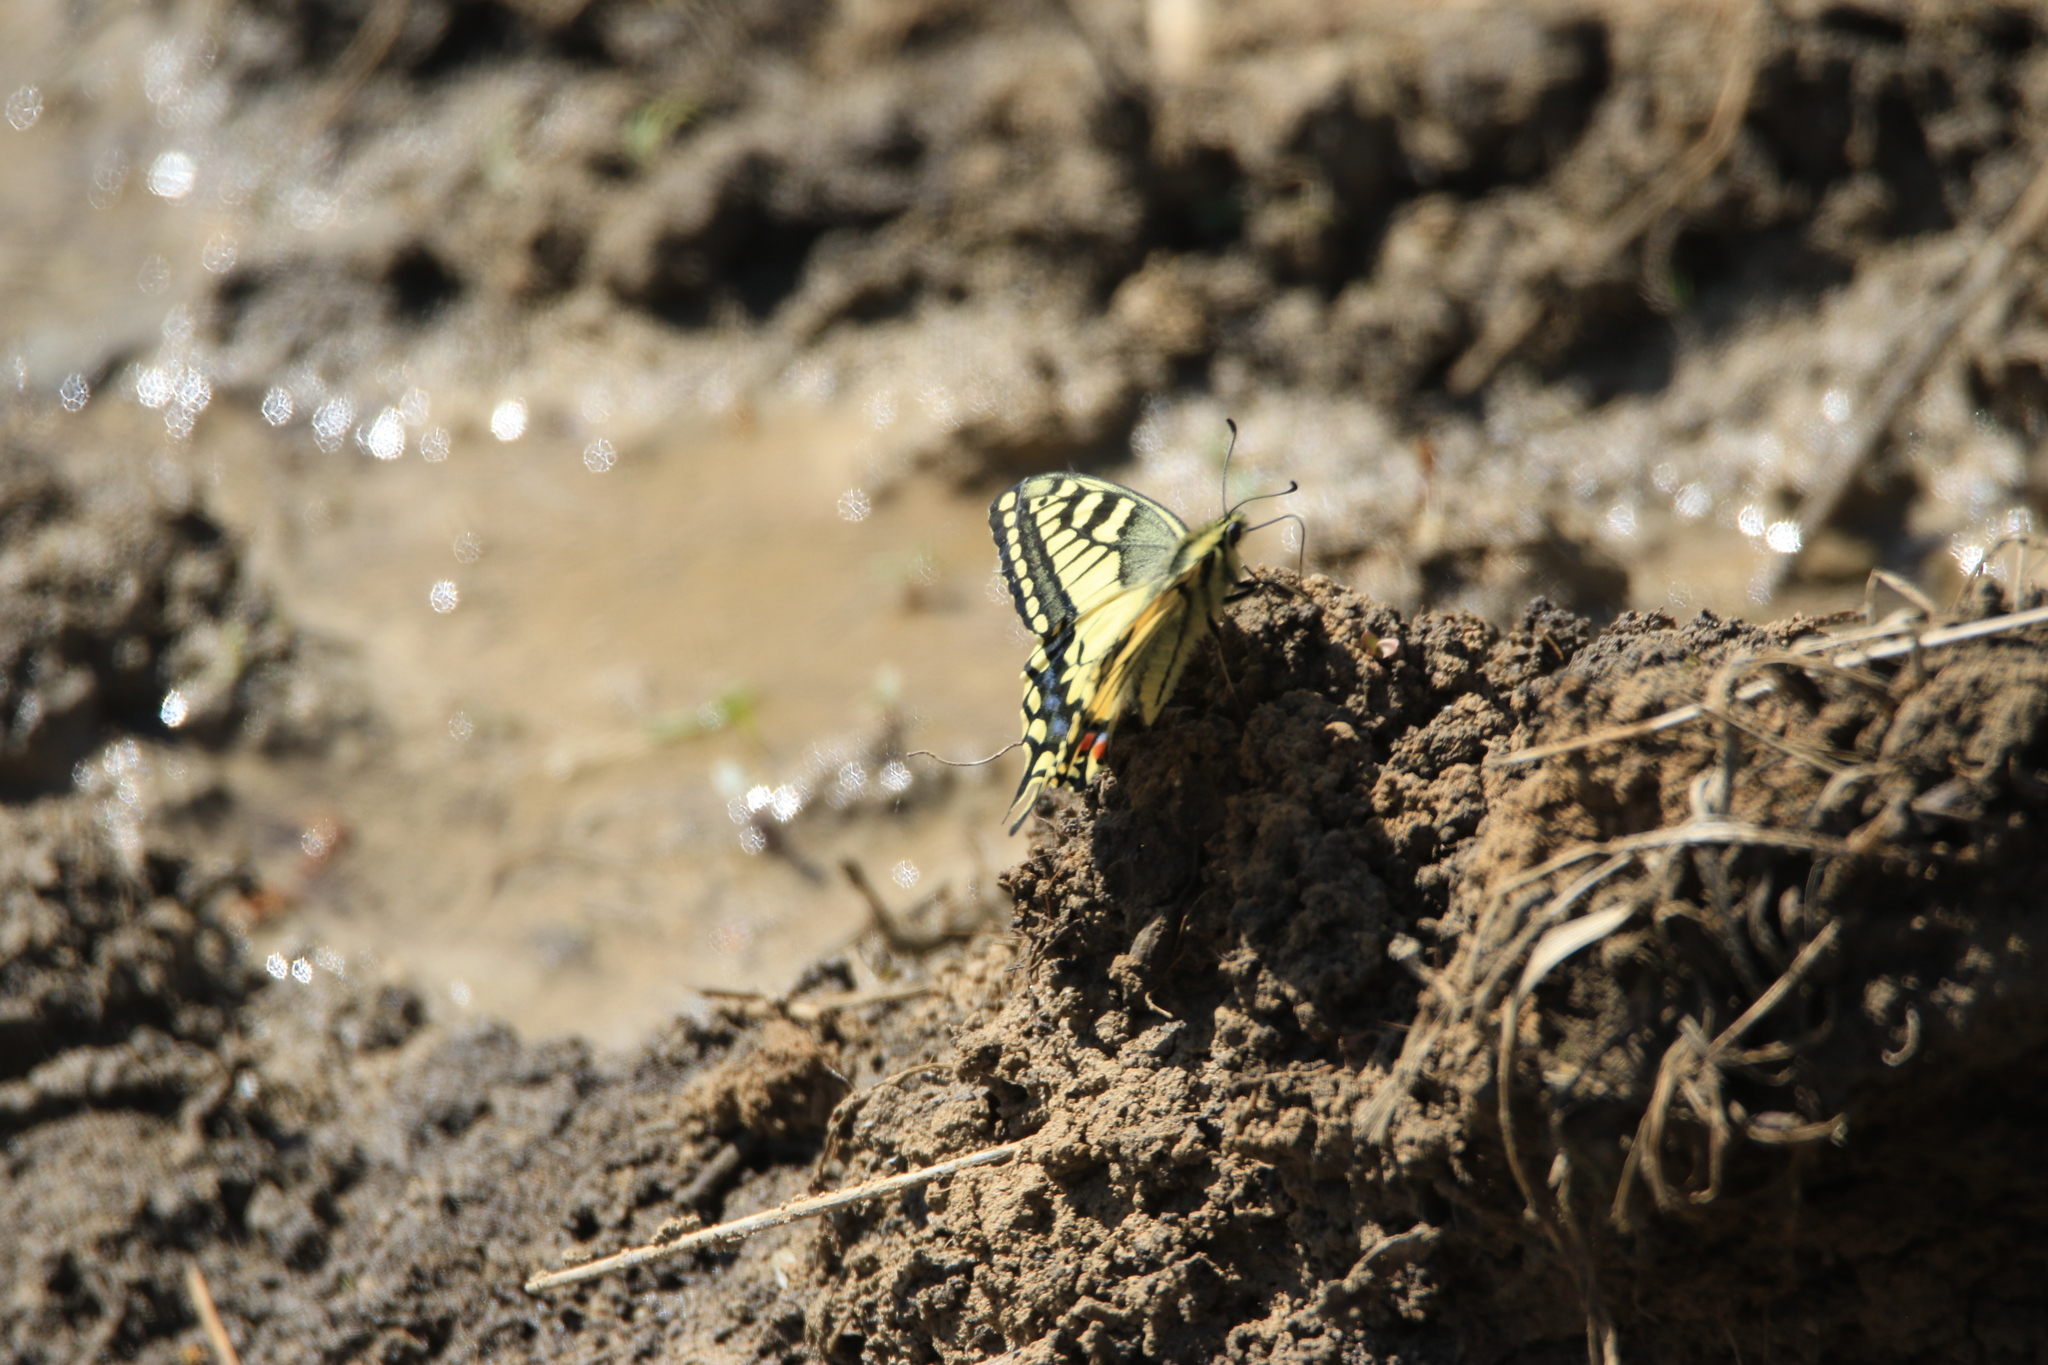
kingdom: Animalia
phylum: Arthropoda
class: Insecta
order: Lepidoptera
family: Papilionidae
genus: Papilio
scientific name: Papilio machaon
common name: Swallowtail
